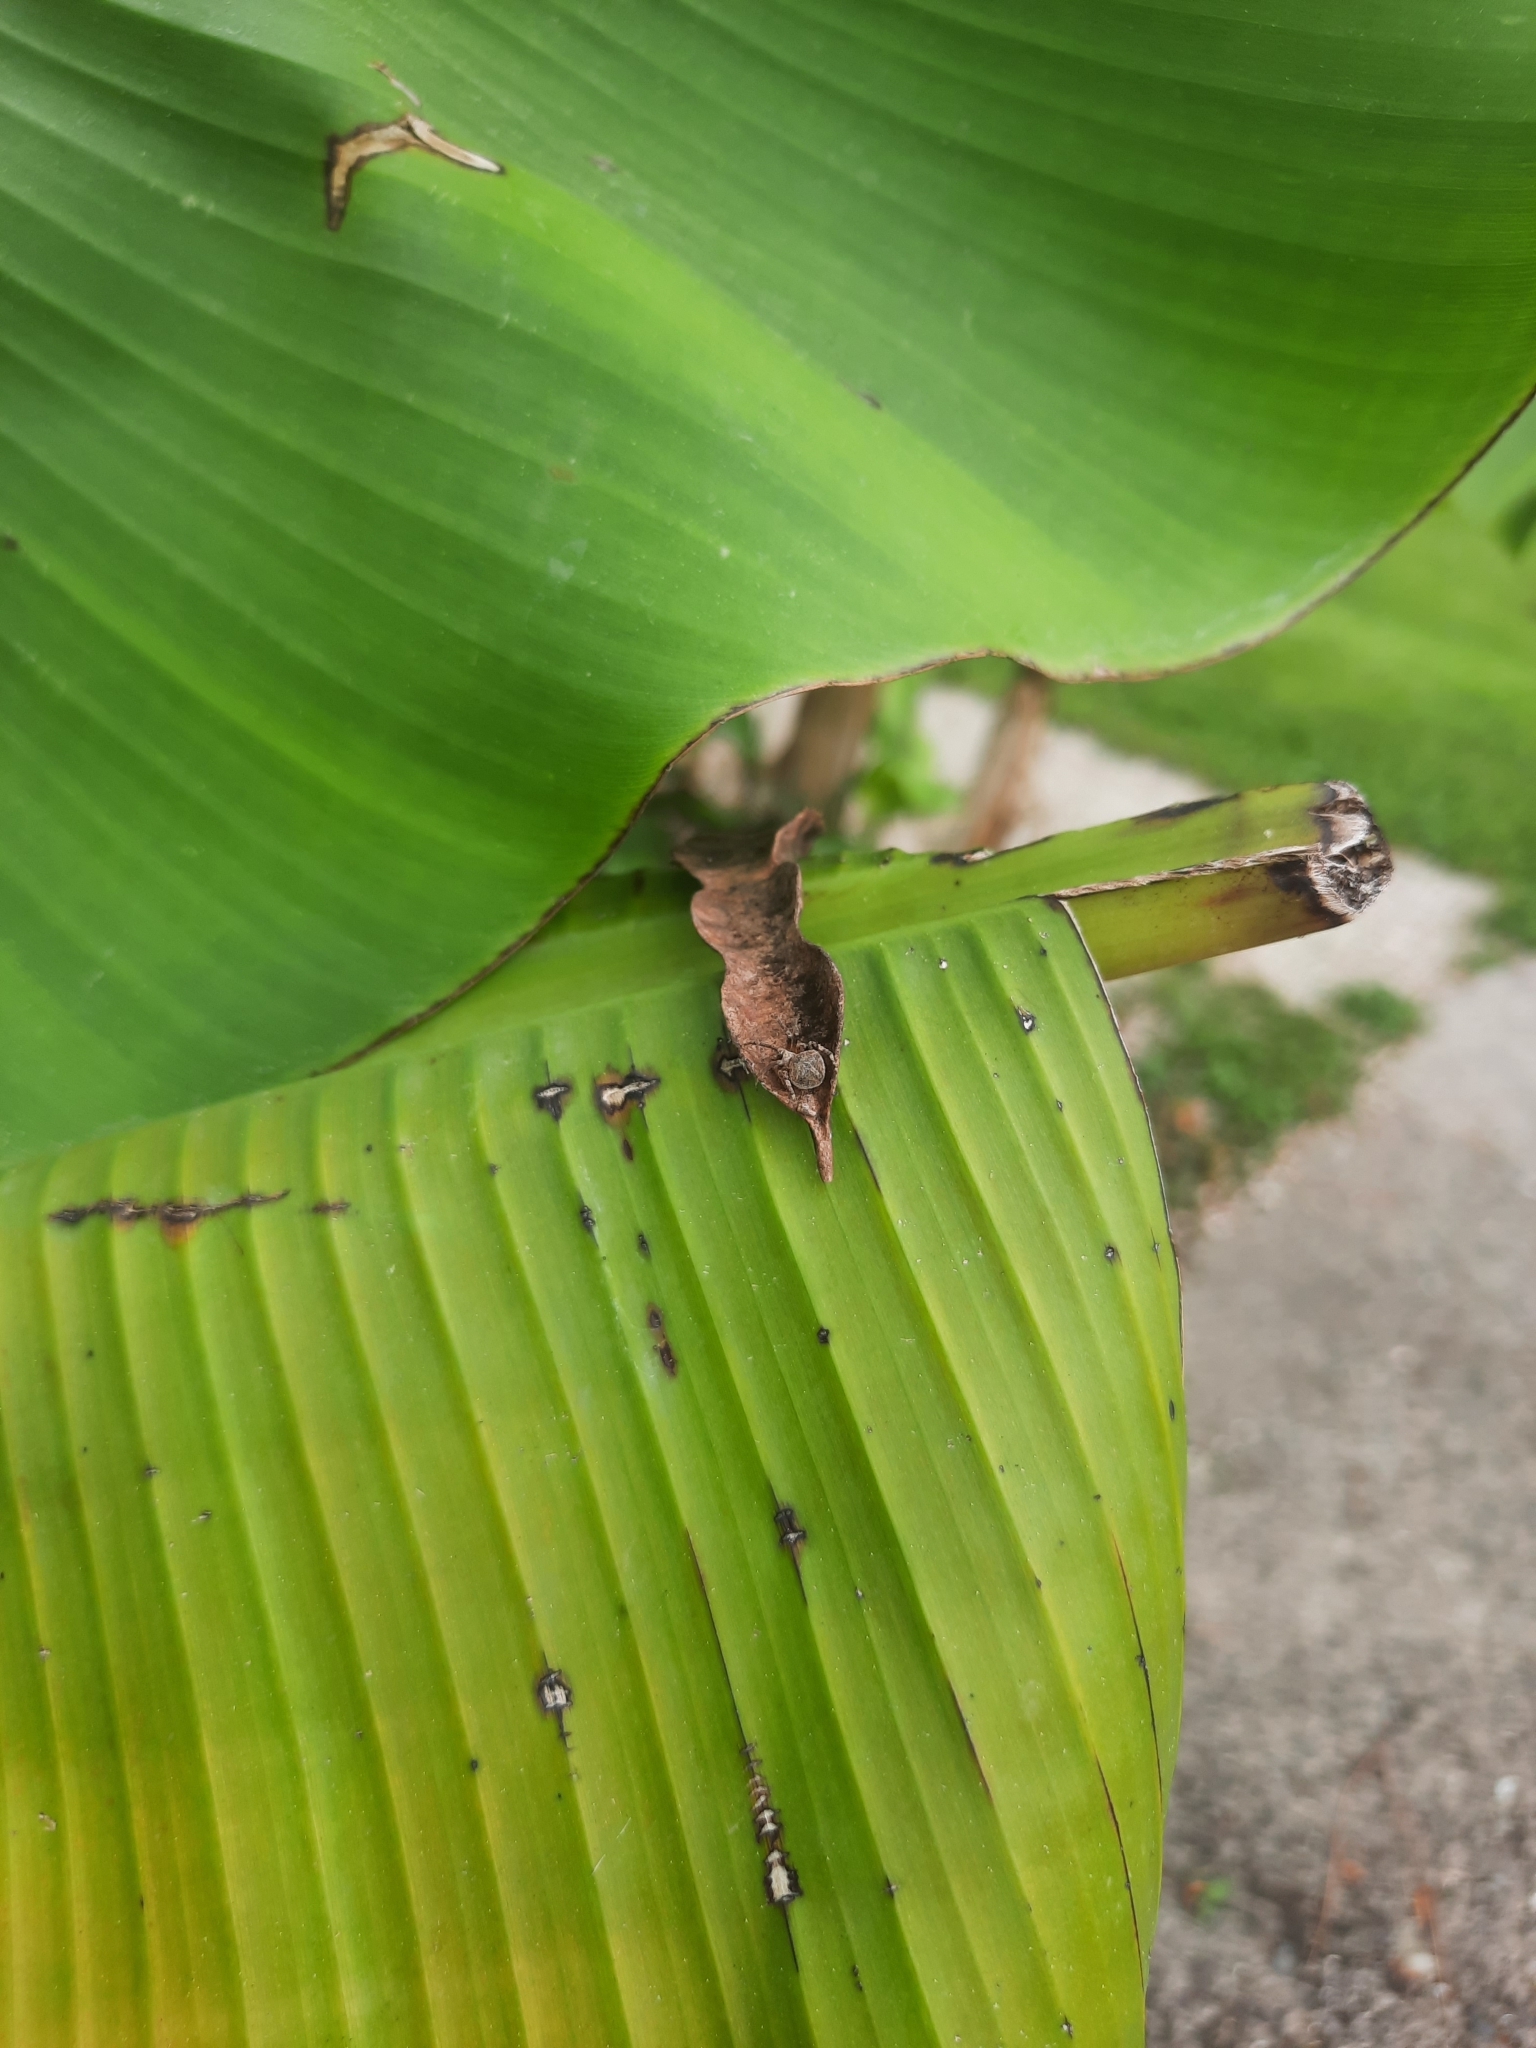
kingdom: Animalia
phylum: Arthropoda
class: Arachnida
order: Araneae
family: Araneidae
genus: Neoscona
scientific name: Neoscona subfusca
